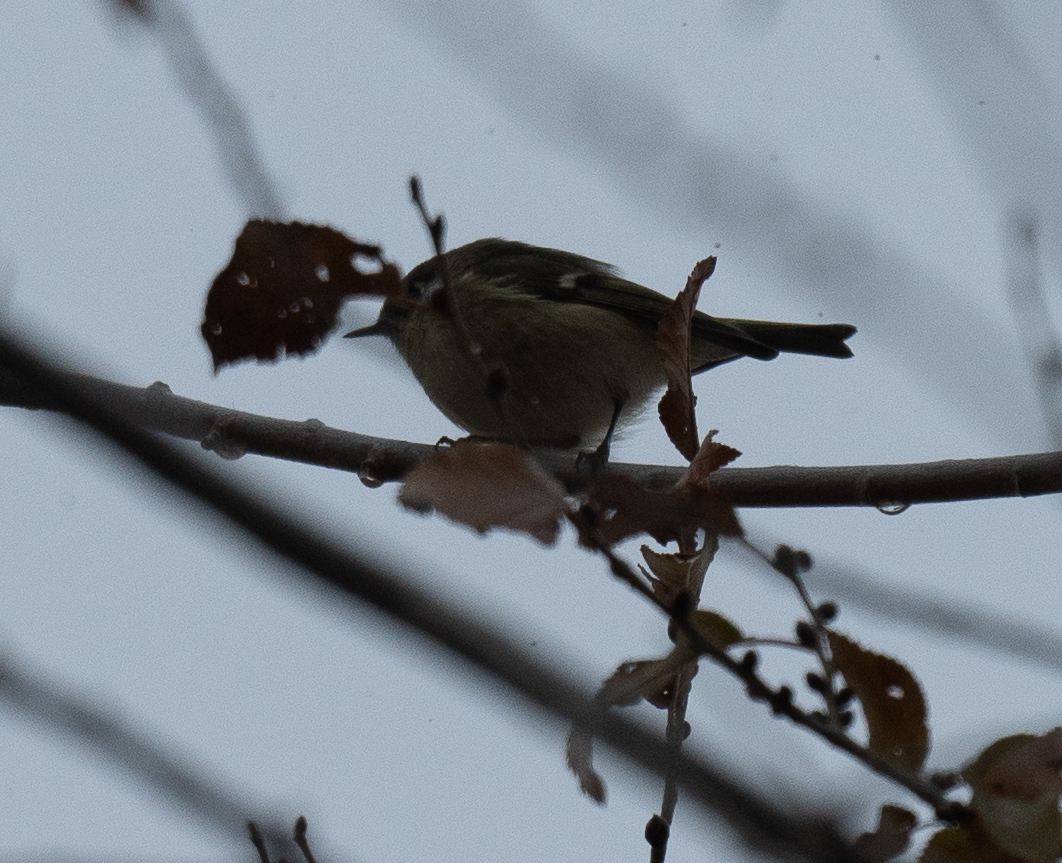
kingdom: Animalia
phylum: Chordata
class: Aves
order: Passeriformes
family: Regulidae
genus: Regulus
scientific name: Regulus calendula
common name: Ruby-crowned kinglet
